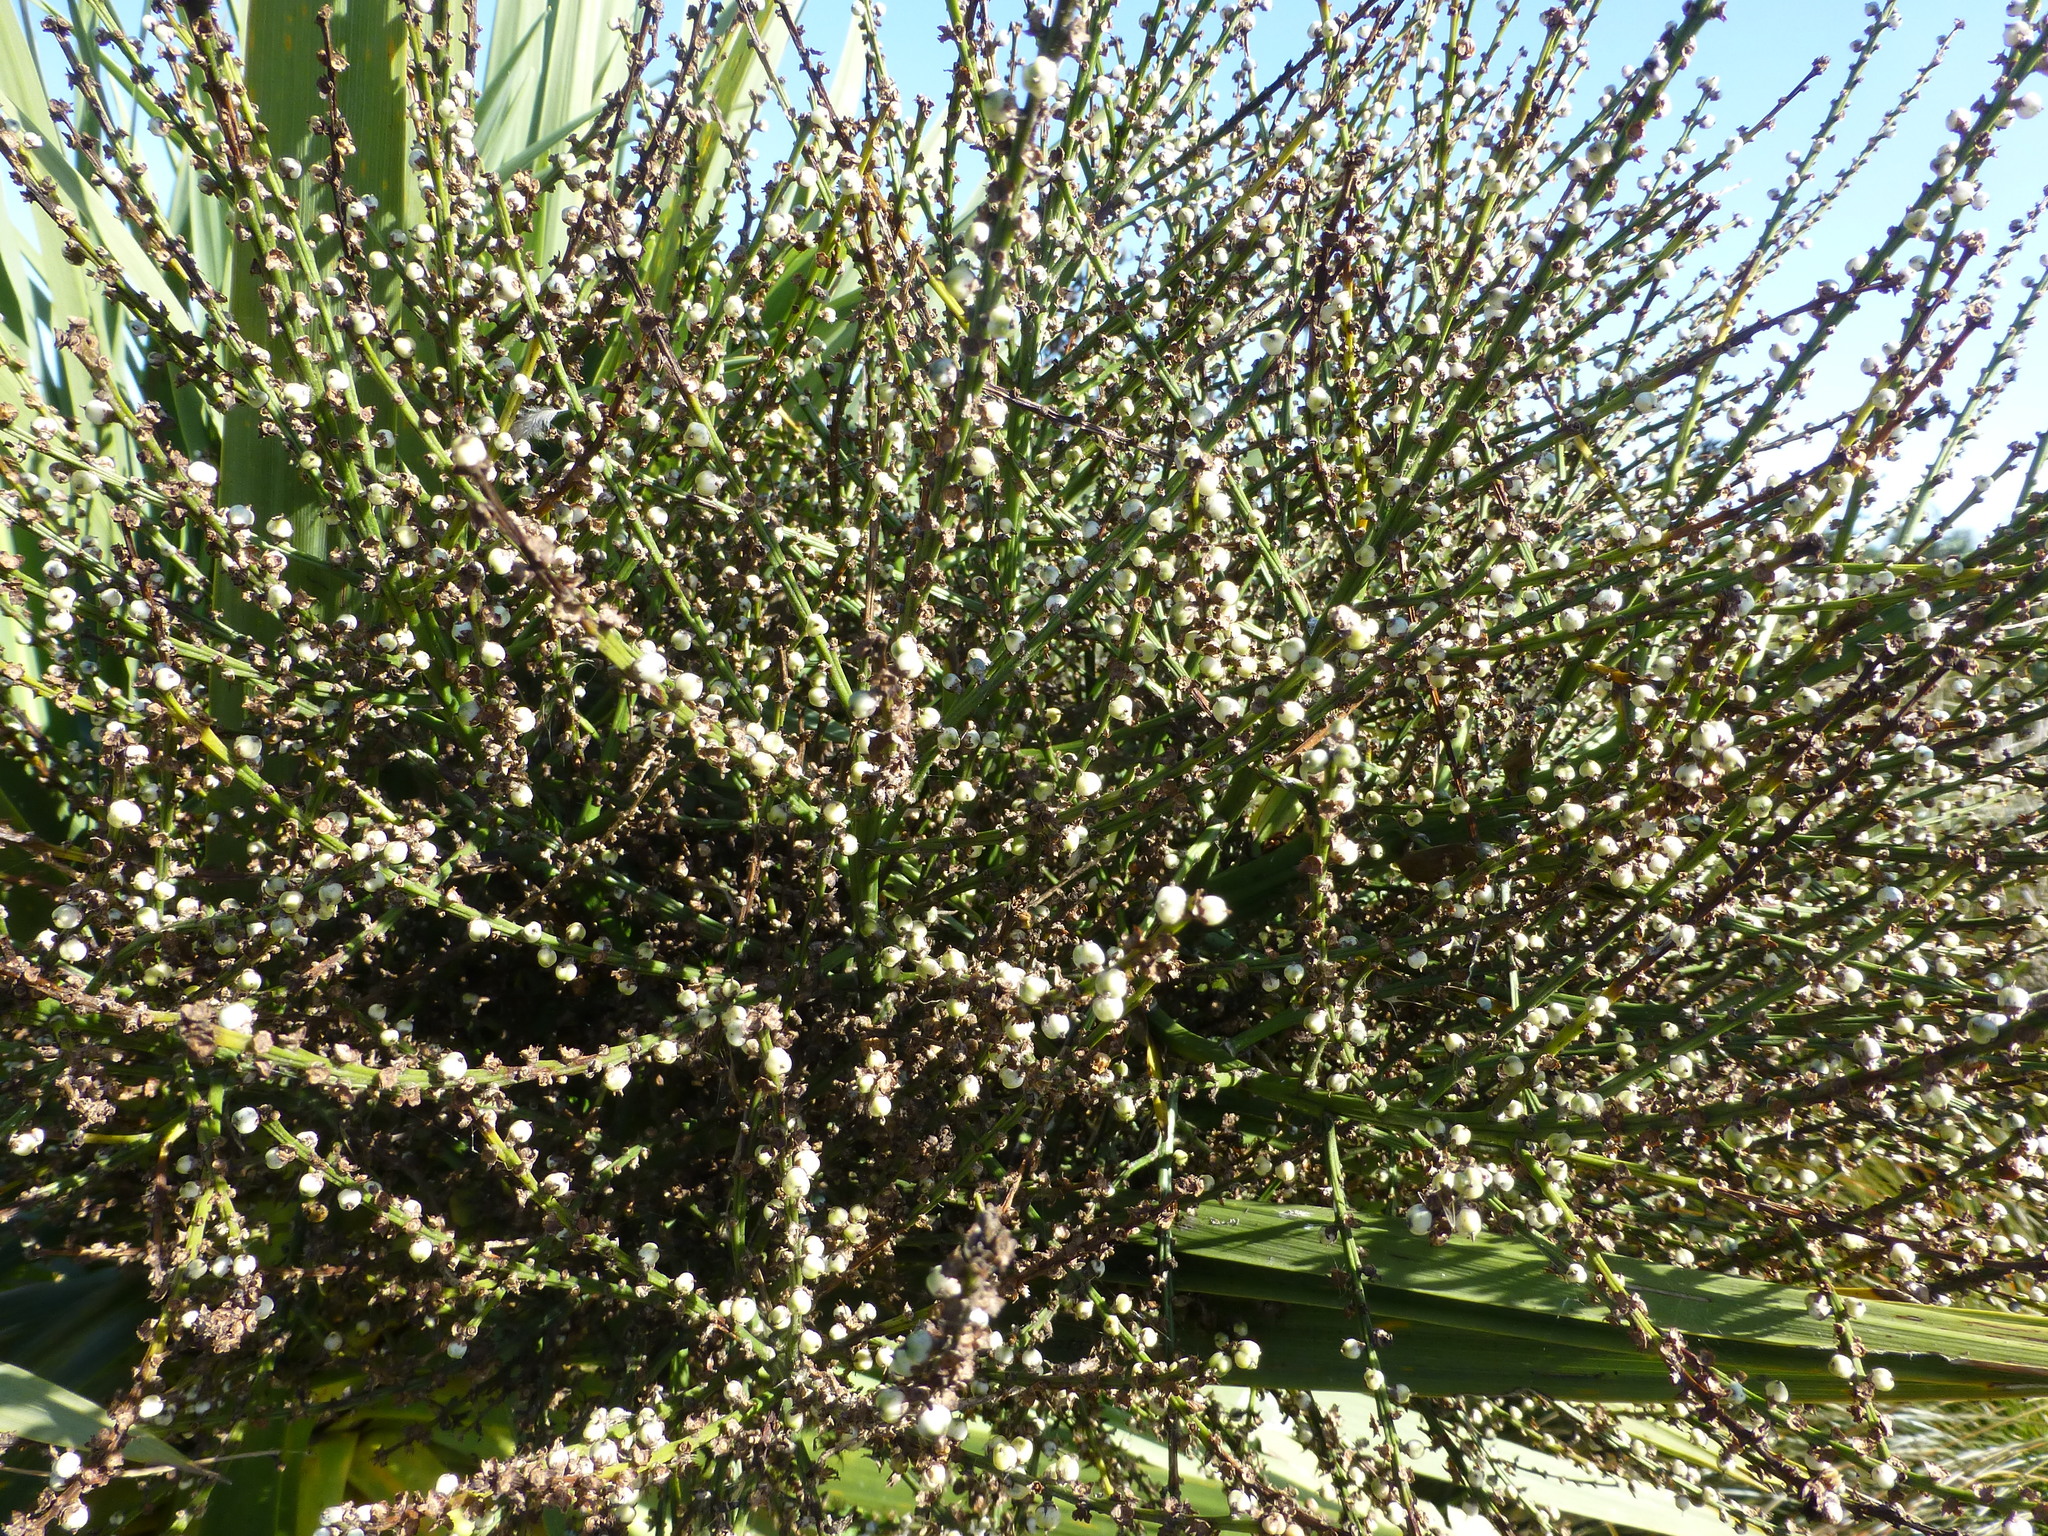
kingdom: Plantae
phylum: Tracheophyta
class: Liliopsida
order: Asparagales
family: Asparagaceae
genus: Cordyline
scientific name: Cordyline australis
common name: Cabbage-palm
